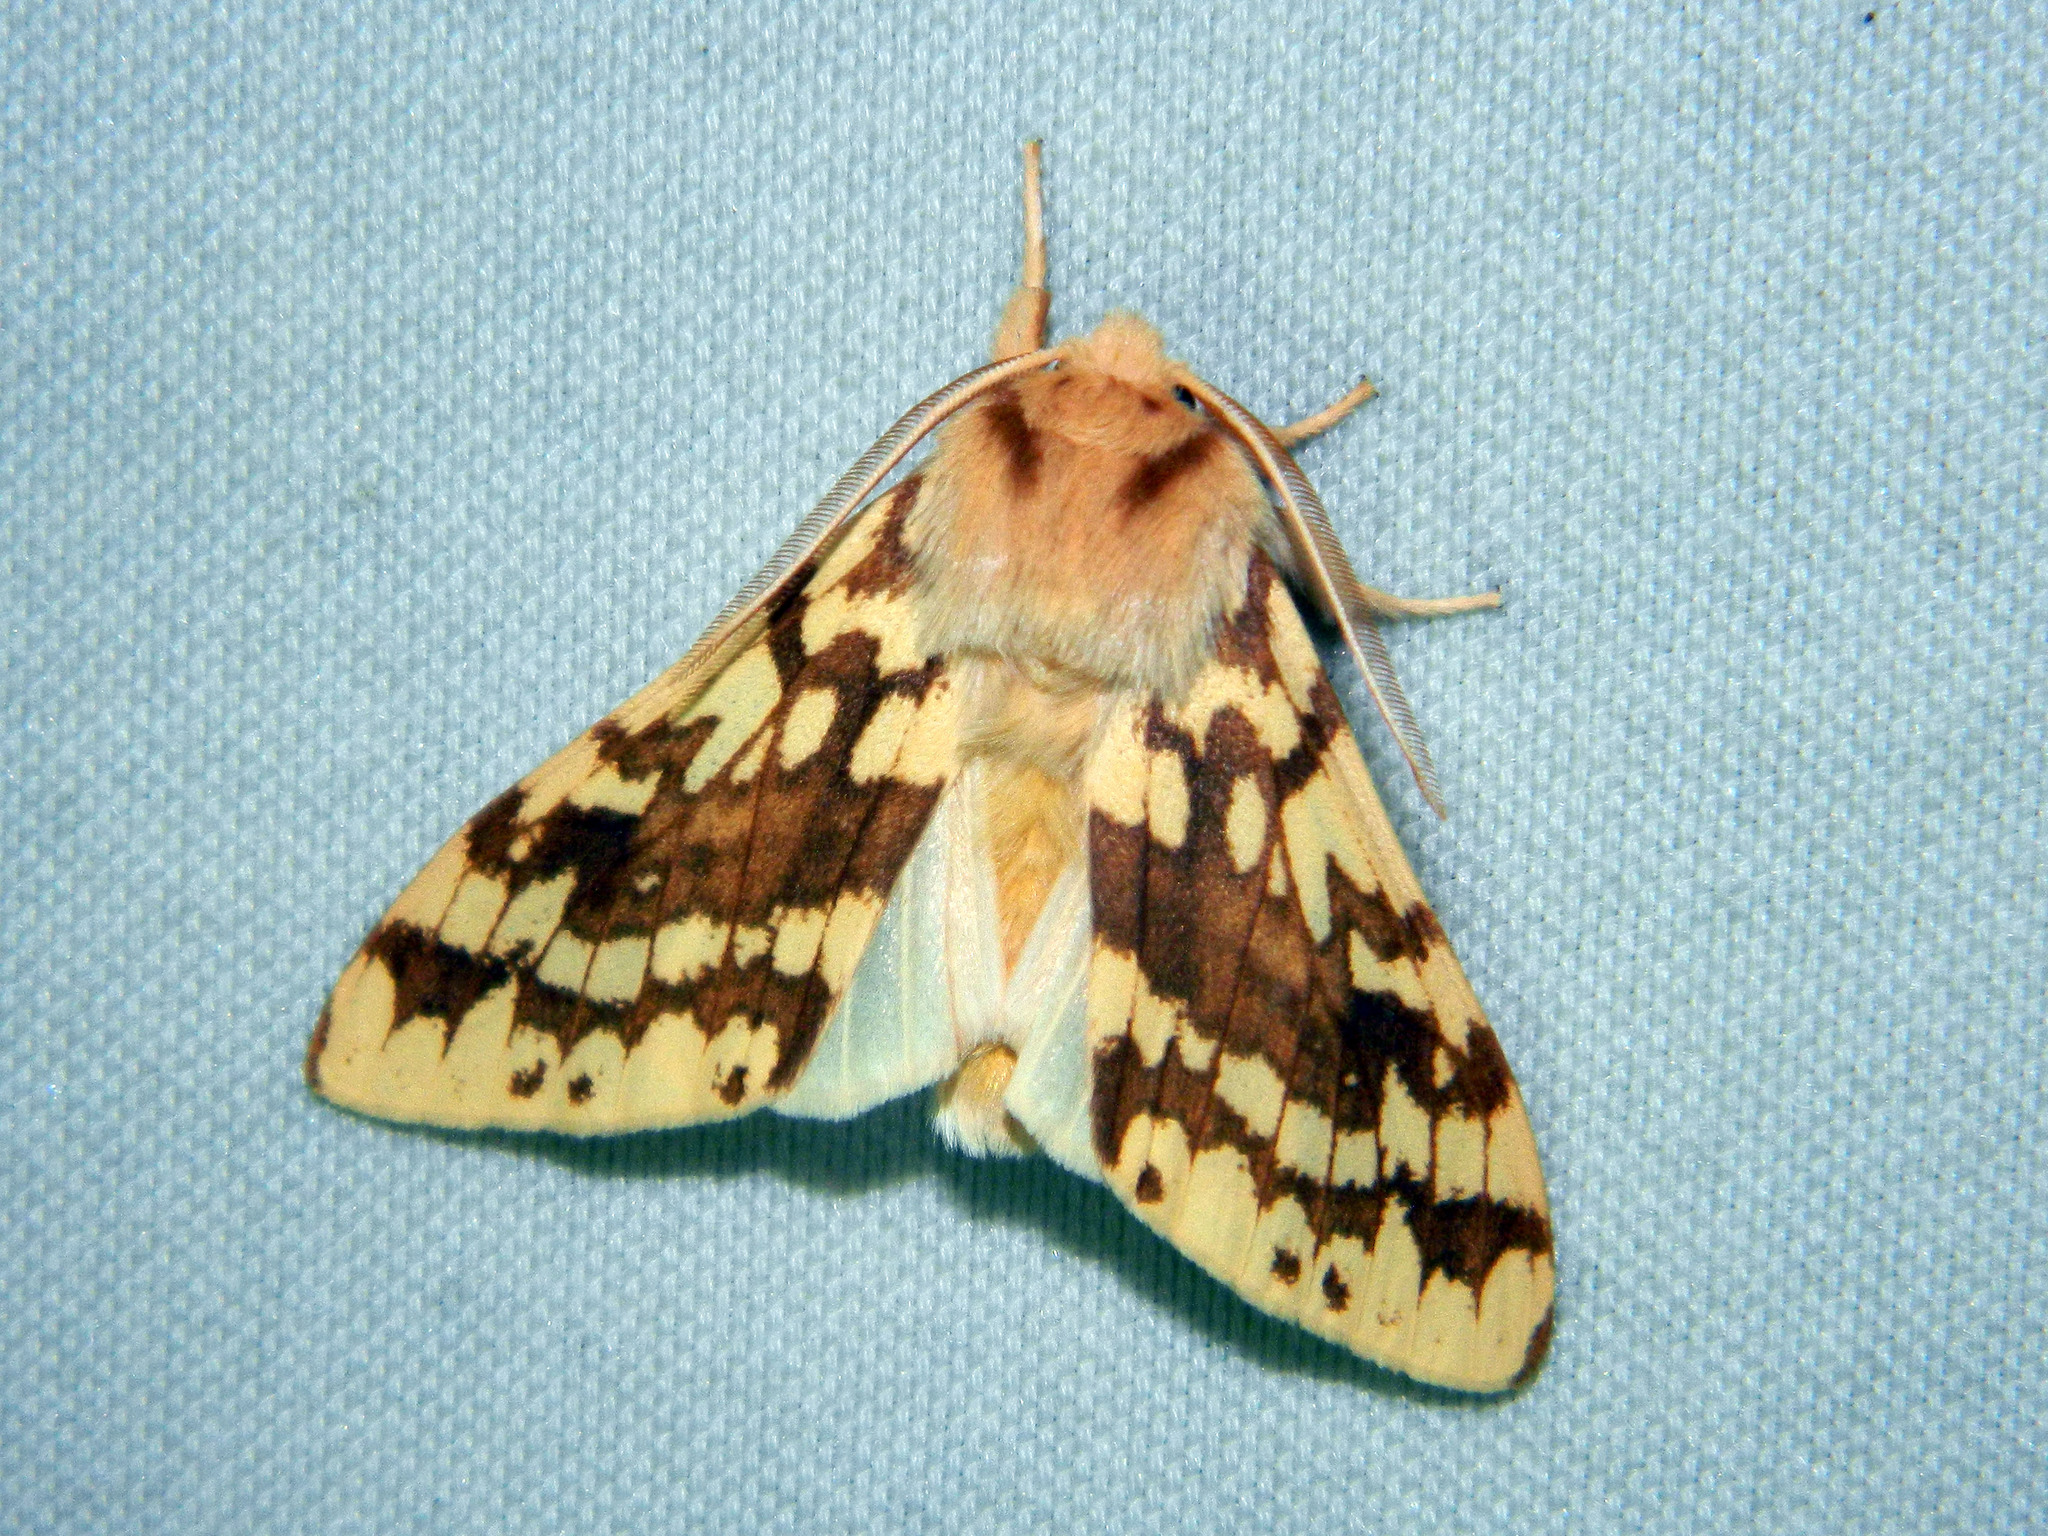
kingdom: Animalia
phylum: Arthropoda
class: Insecta
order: Lepidoptera
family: Erebidae
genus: Lophocampa
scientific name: Lophocampa maculata
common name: Spotted tussock moth
